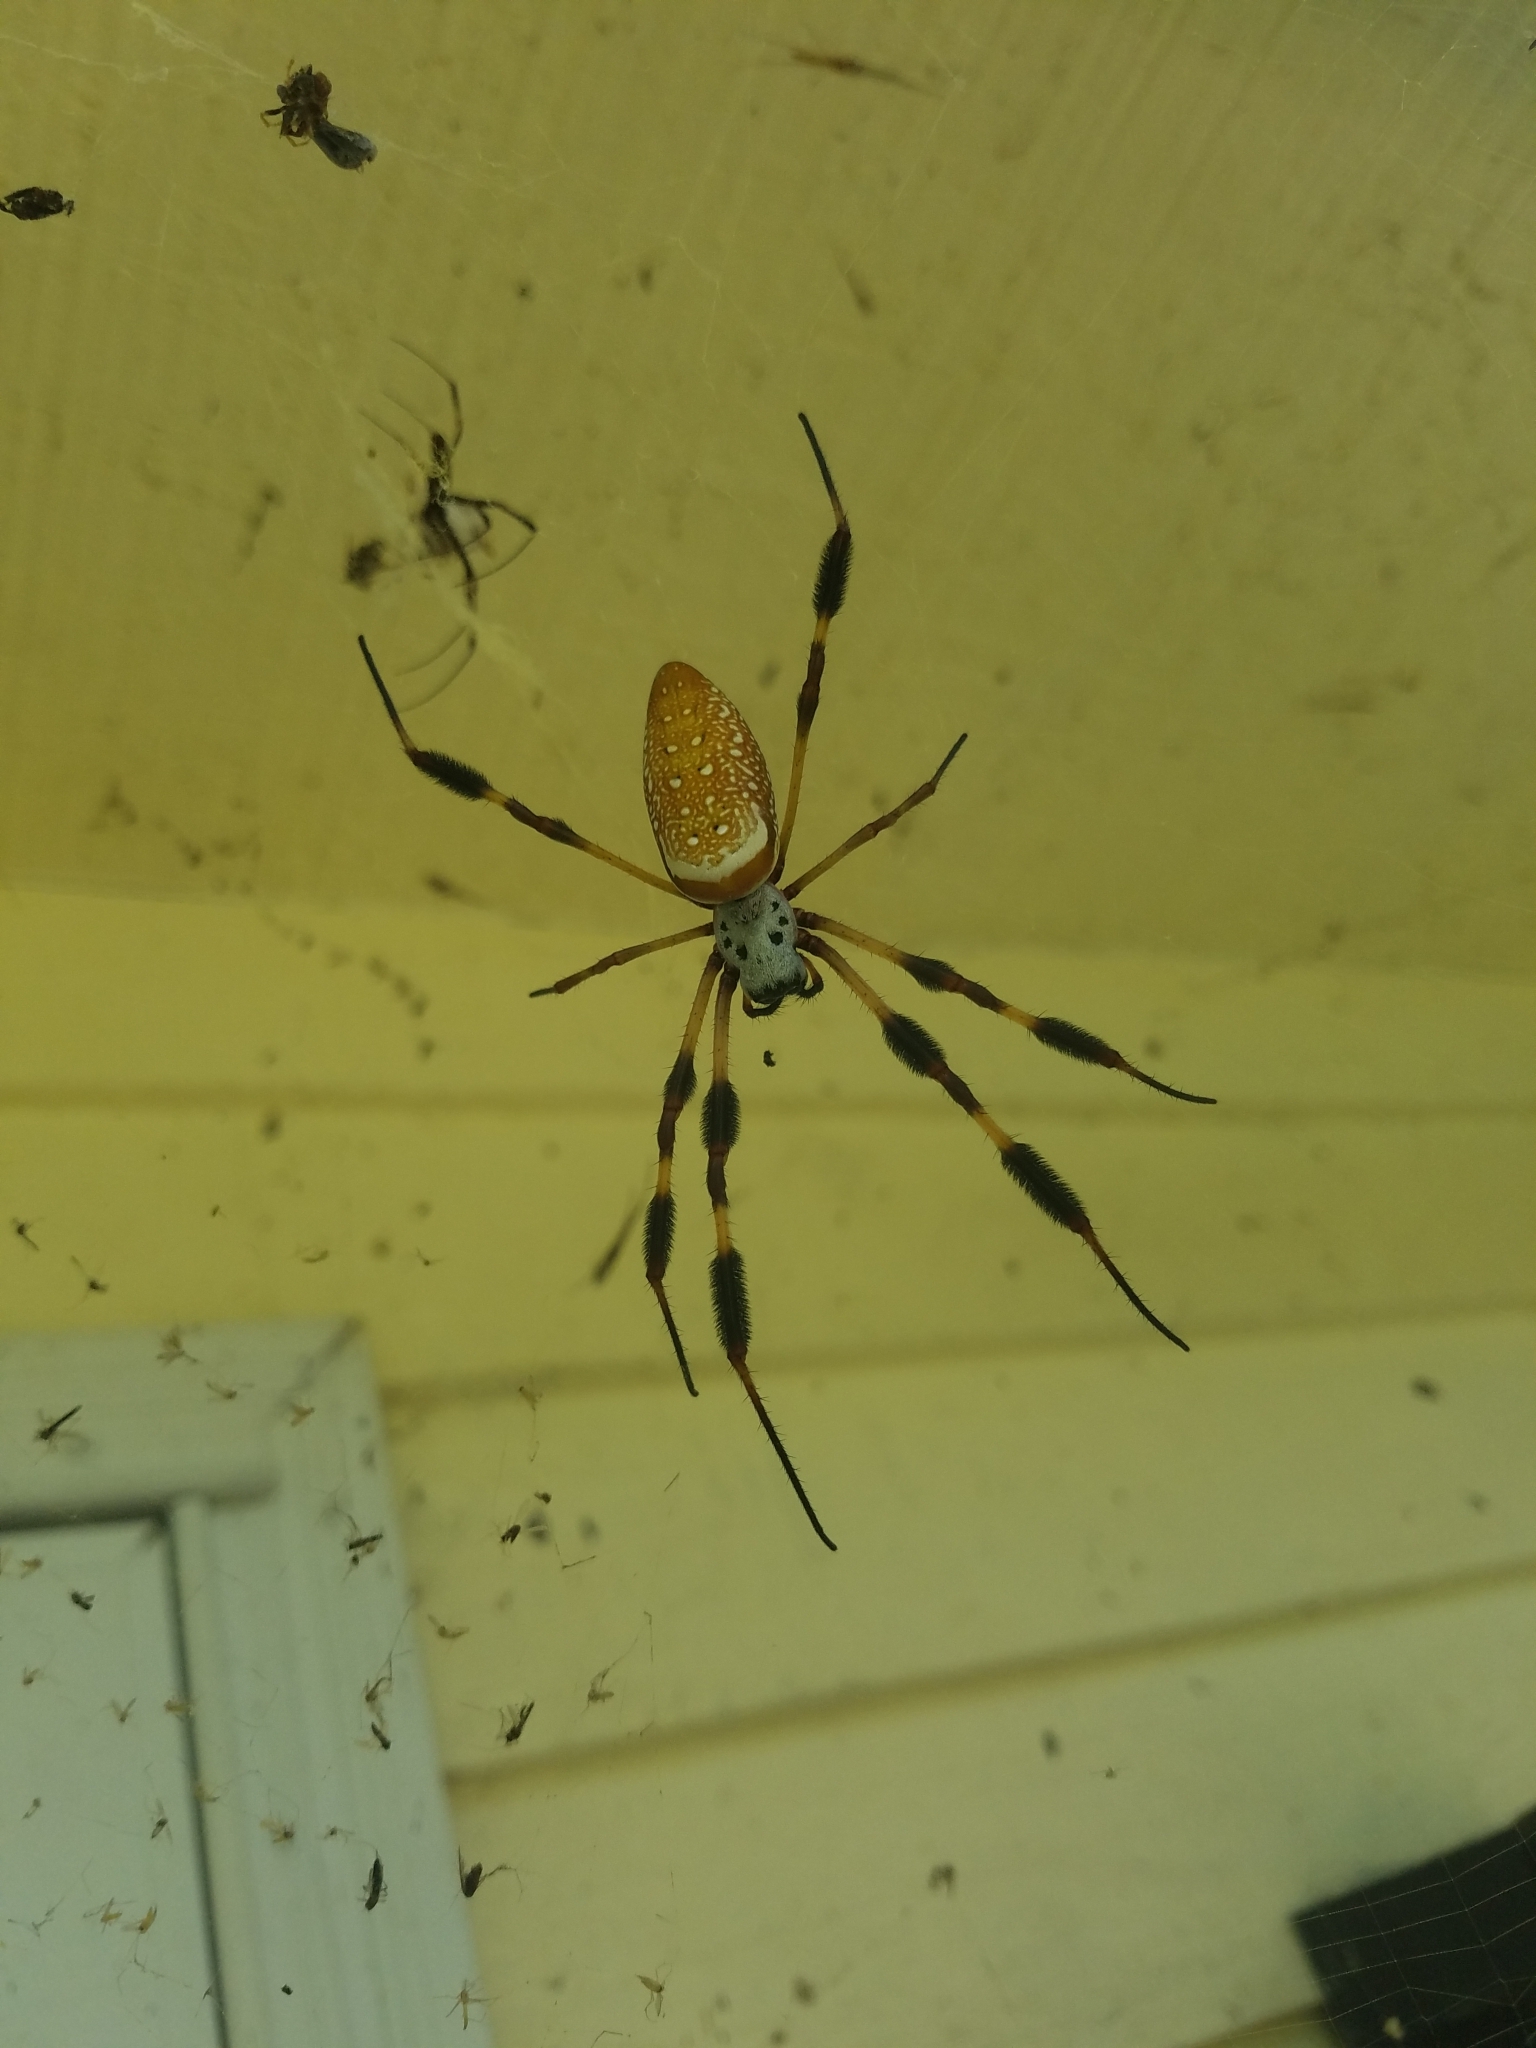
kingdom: Animalia
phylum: Arthropoda
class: Arachnida
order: Araneae
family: Araneidae
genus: Trichonephila
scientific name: Trichonephila clavipes
